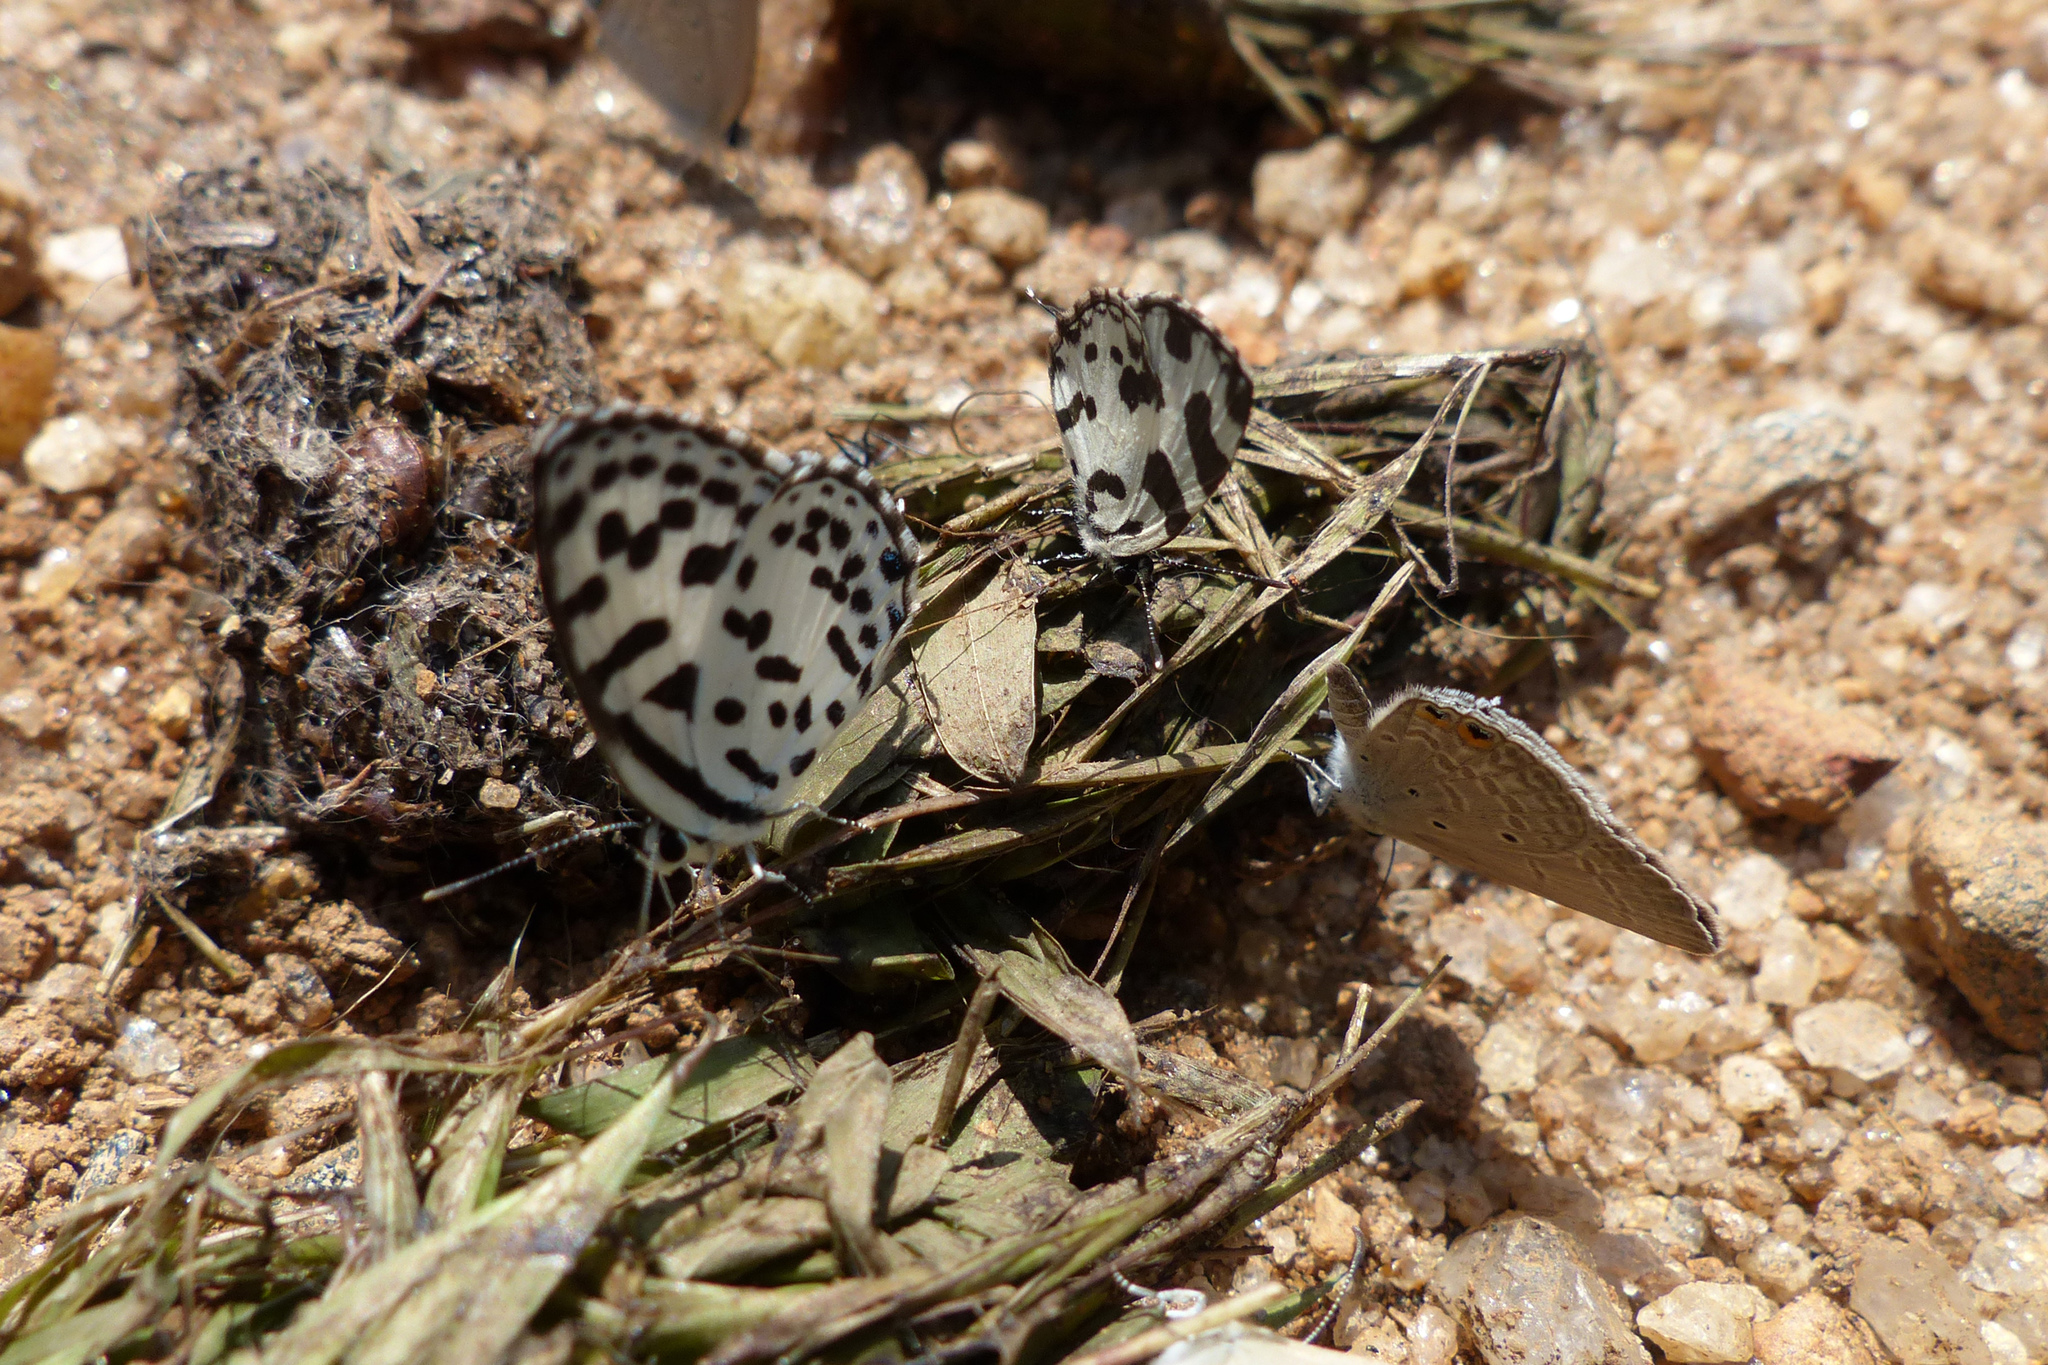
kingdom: Animalia
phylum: Arthropoda
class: Insecta
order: Lepidoptera
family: Lycaenidae
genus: Castalius
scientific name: Castalius rosimon
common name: Common pierrot
